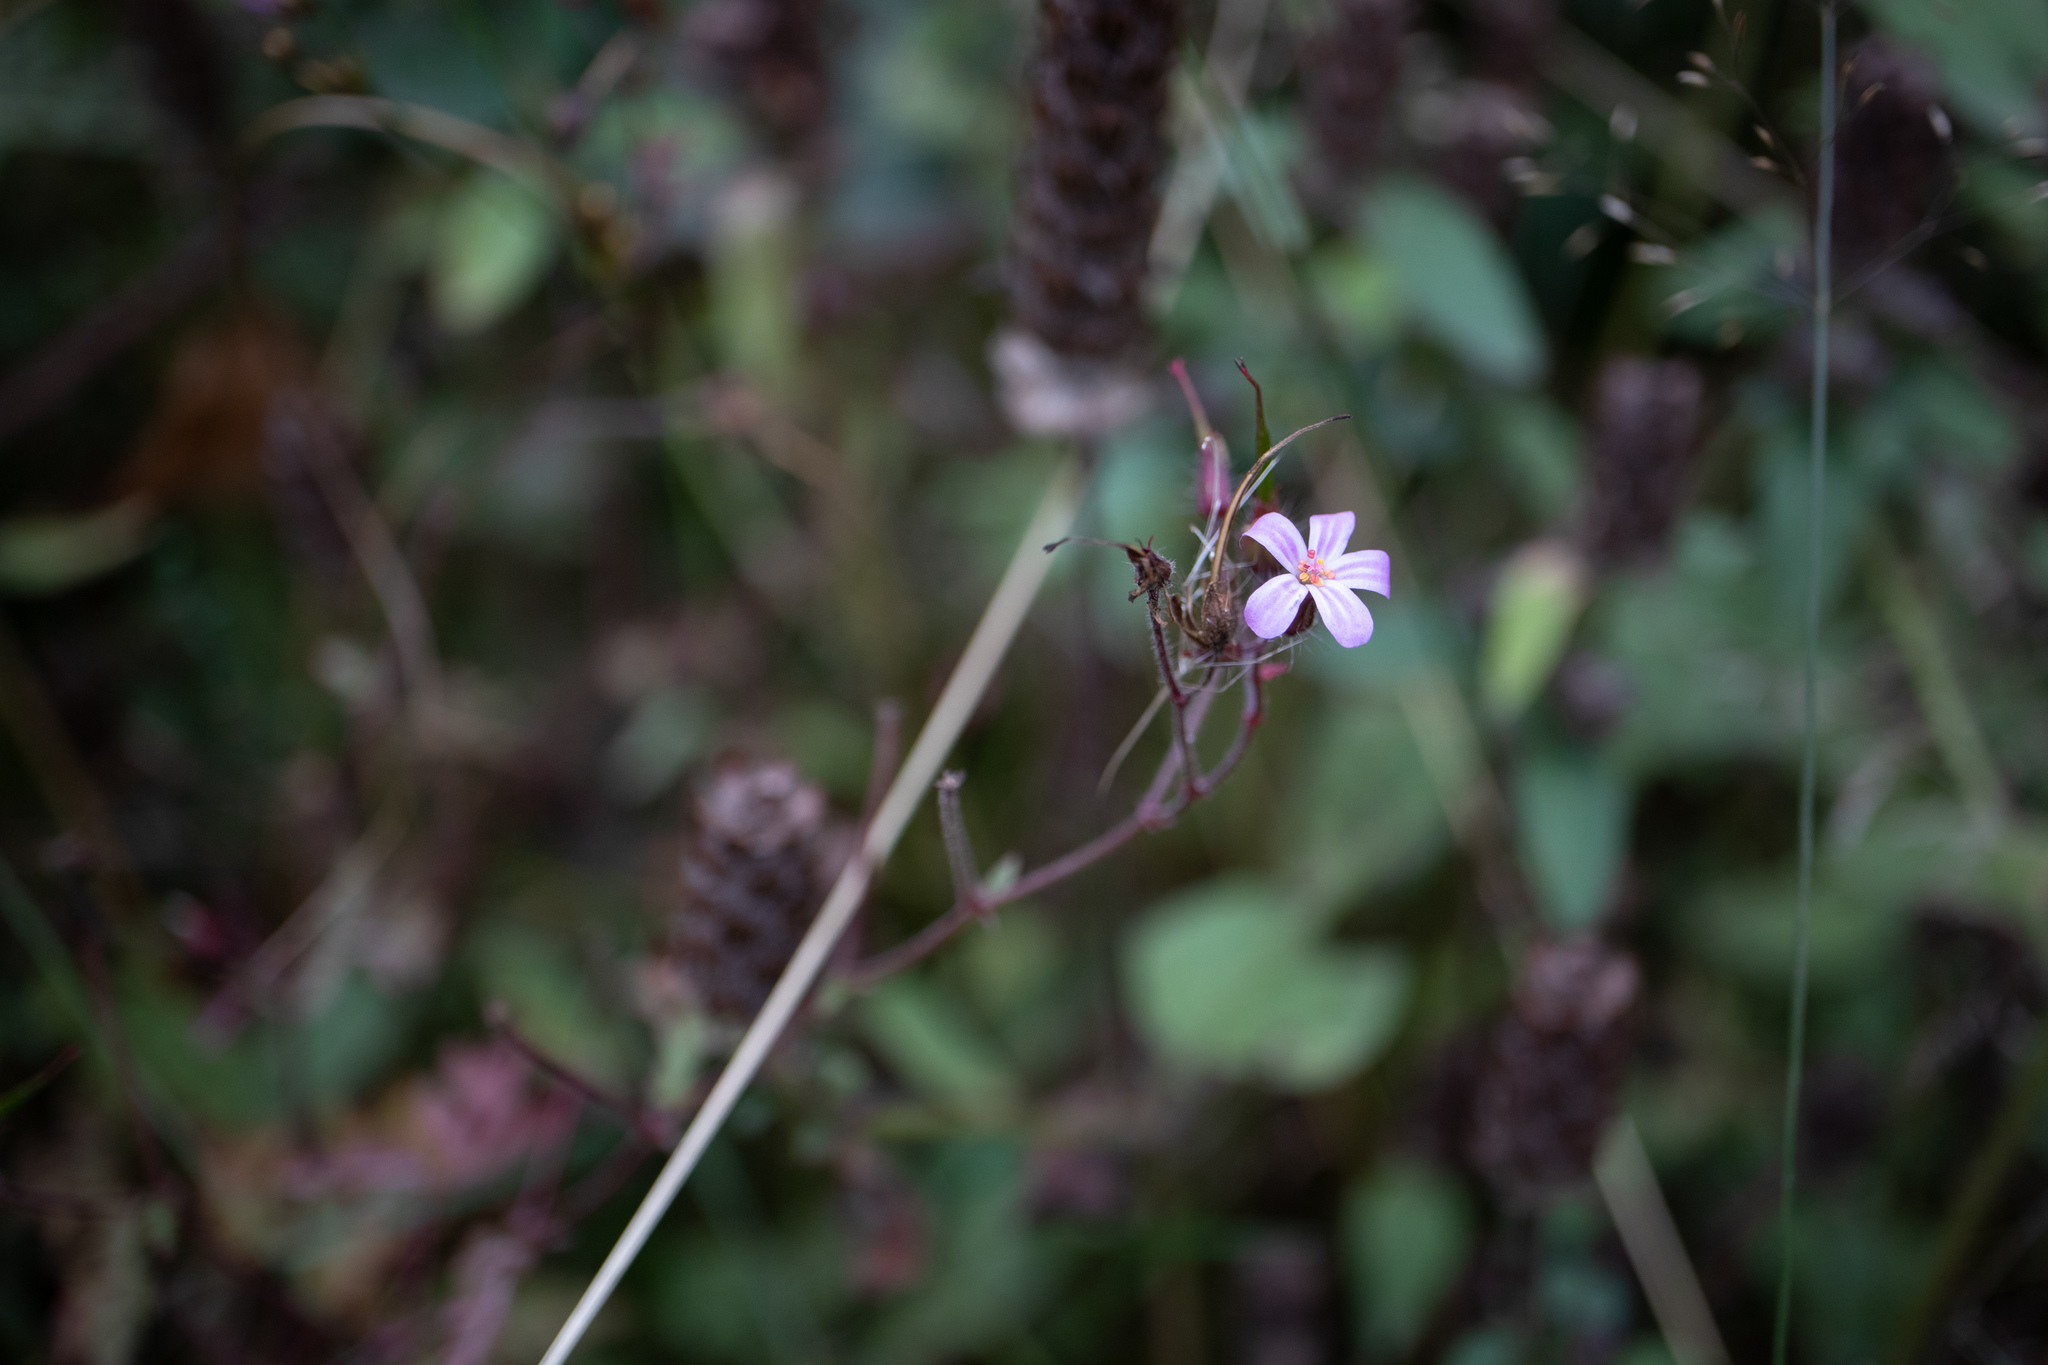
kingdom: Plantae
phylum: Tracheophyta
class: Magnoliopsida
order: Geraniales
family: Geraniaceae
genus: Geranium
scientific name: Geranium robertianum
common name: Herb-robert
